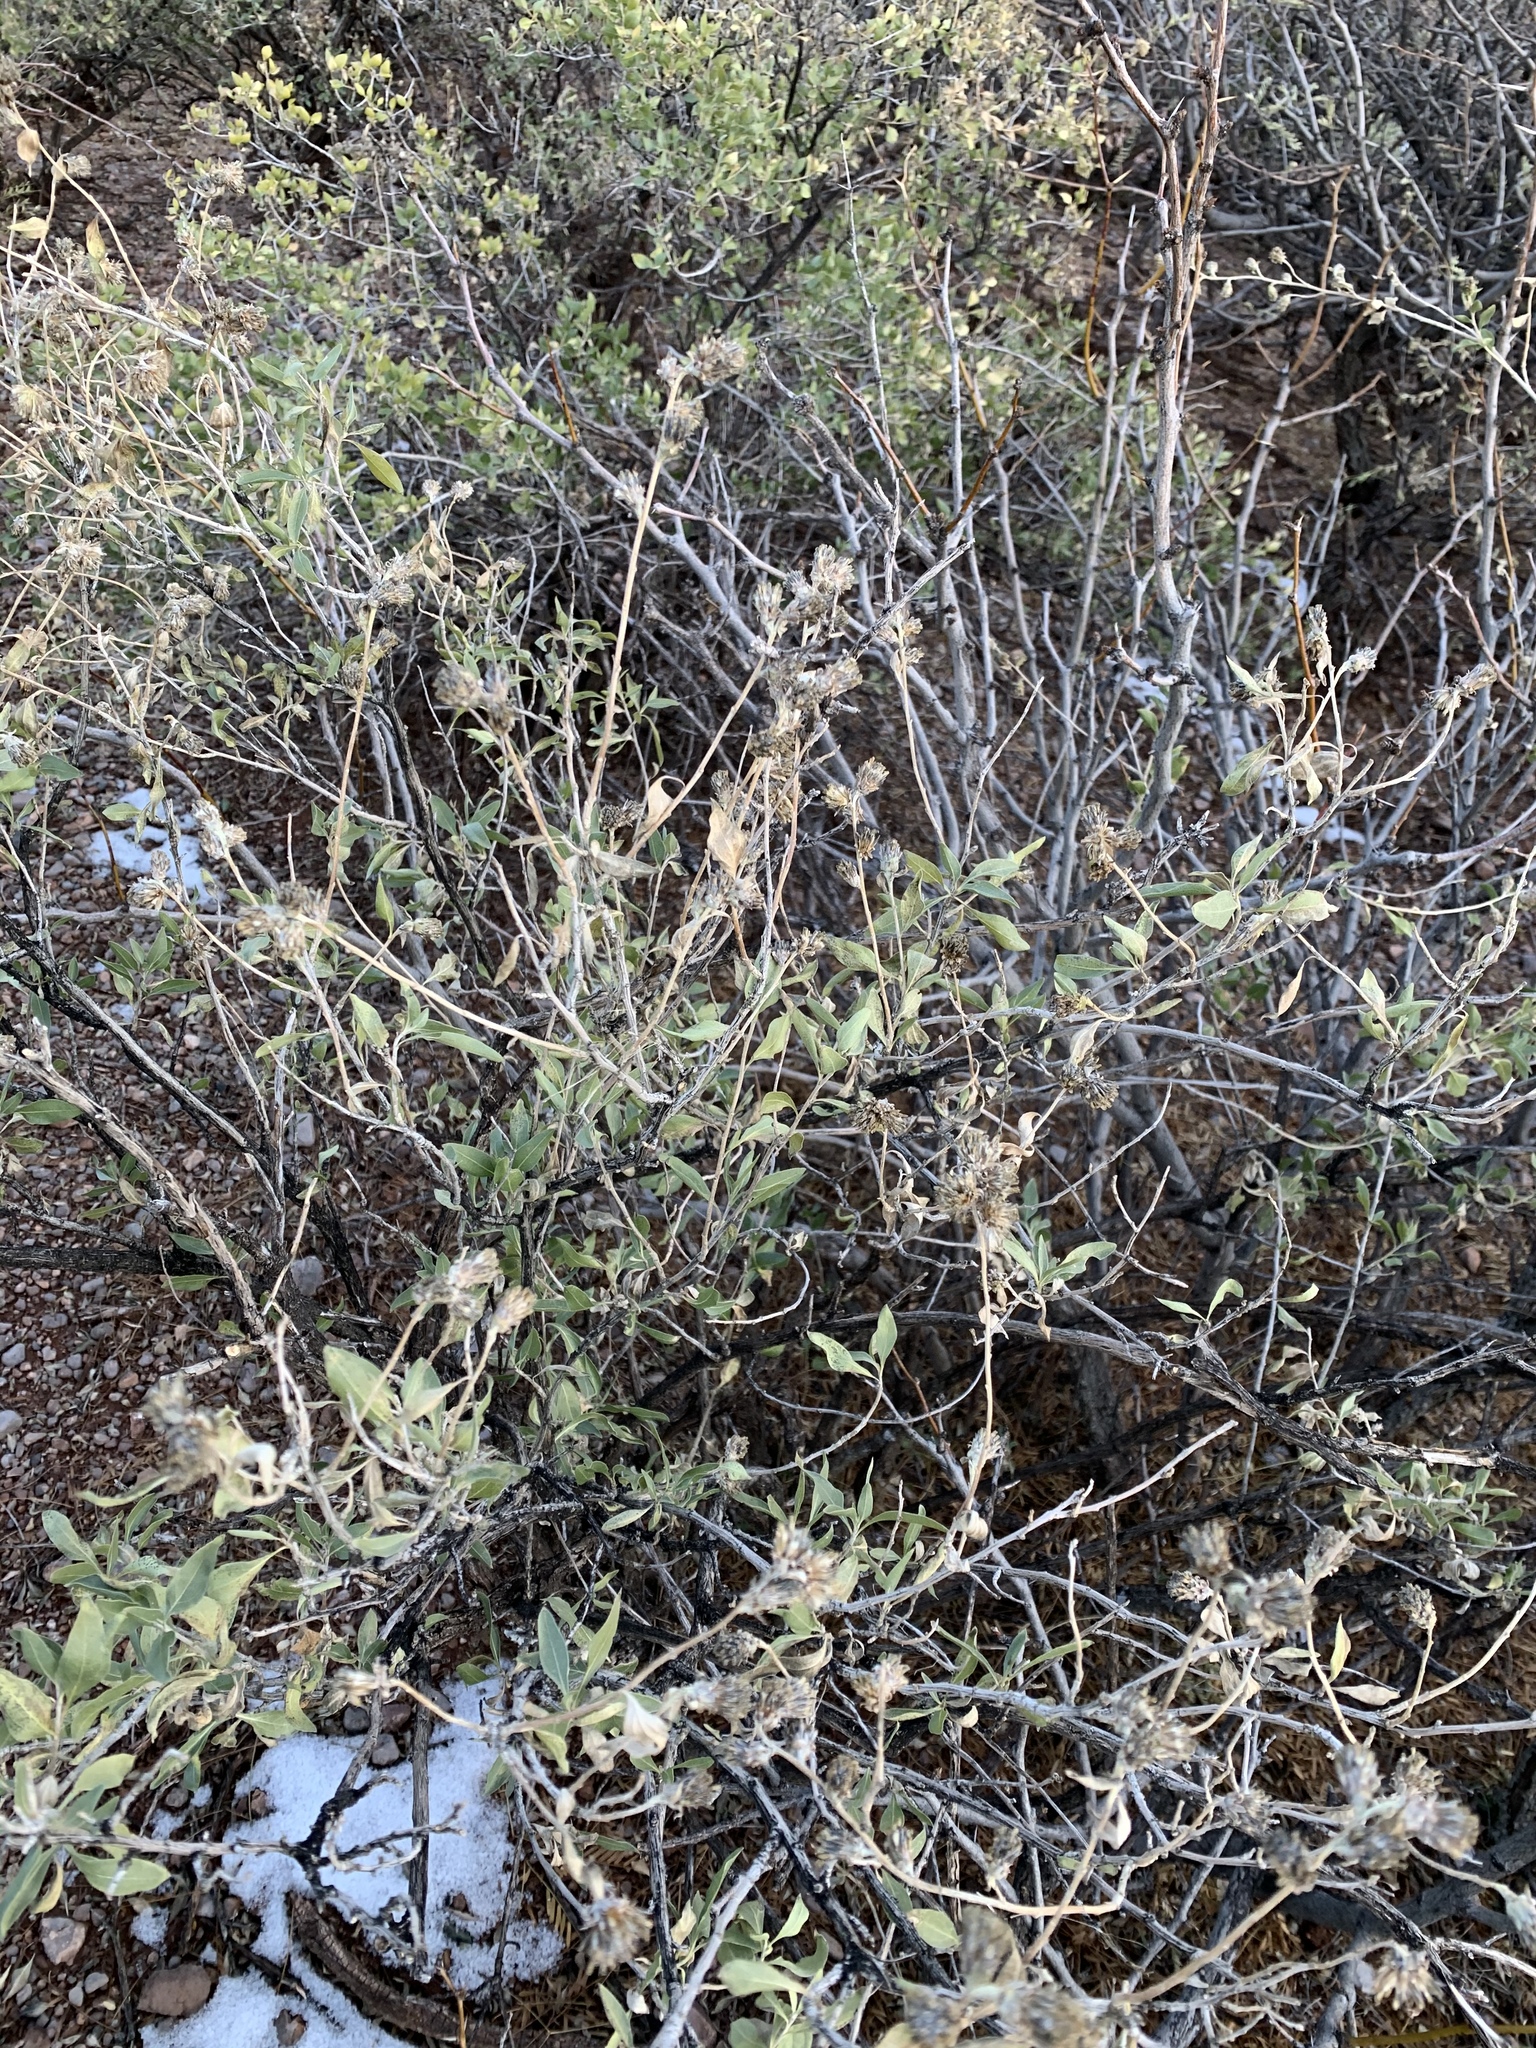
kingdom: Plantae
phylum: Tracheophyta
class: Magnoliopsida
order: Asterales
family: Asteraceae
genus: Flourensia
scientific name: Flourensia cernua
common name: Varnishbush
